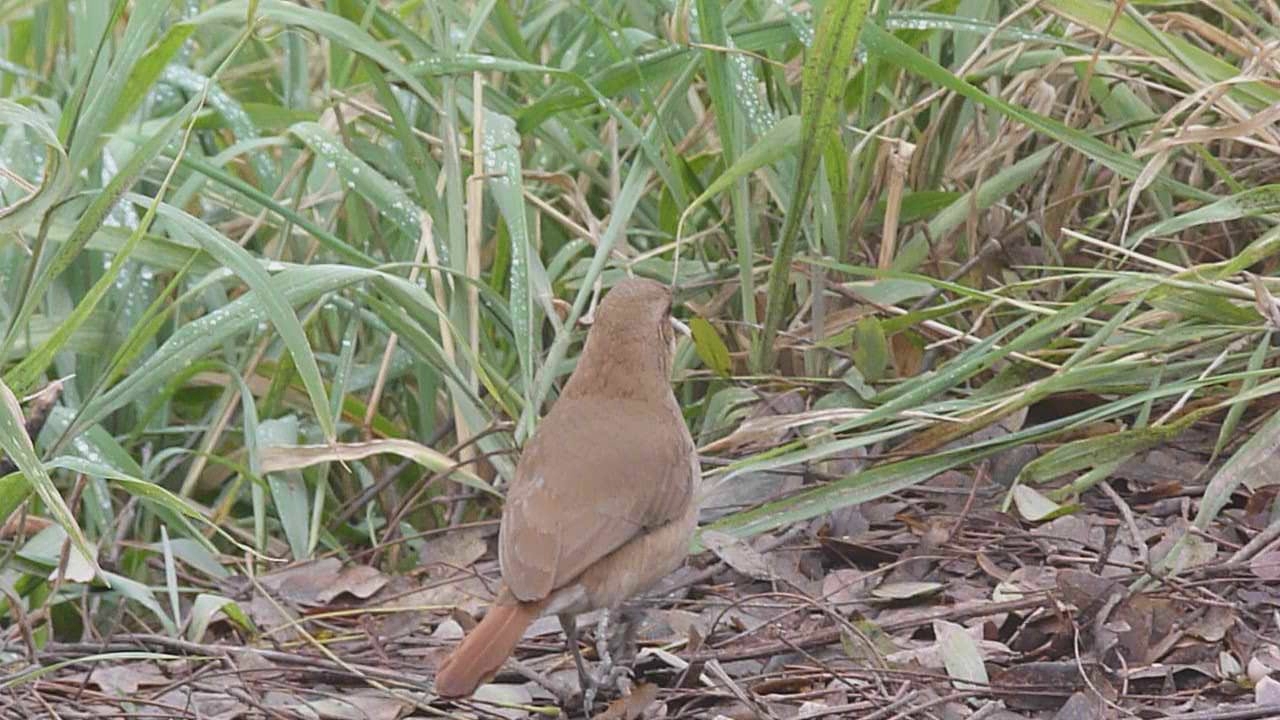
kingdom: Animalia
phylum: Chordata
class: Aves
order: Passeriformes
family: Furnariidae
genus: Furnarius
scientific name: Furnarius rufus
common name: Rufous hornero
